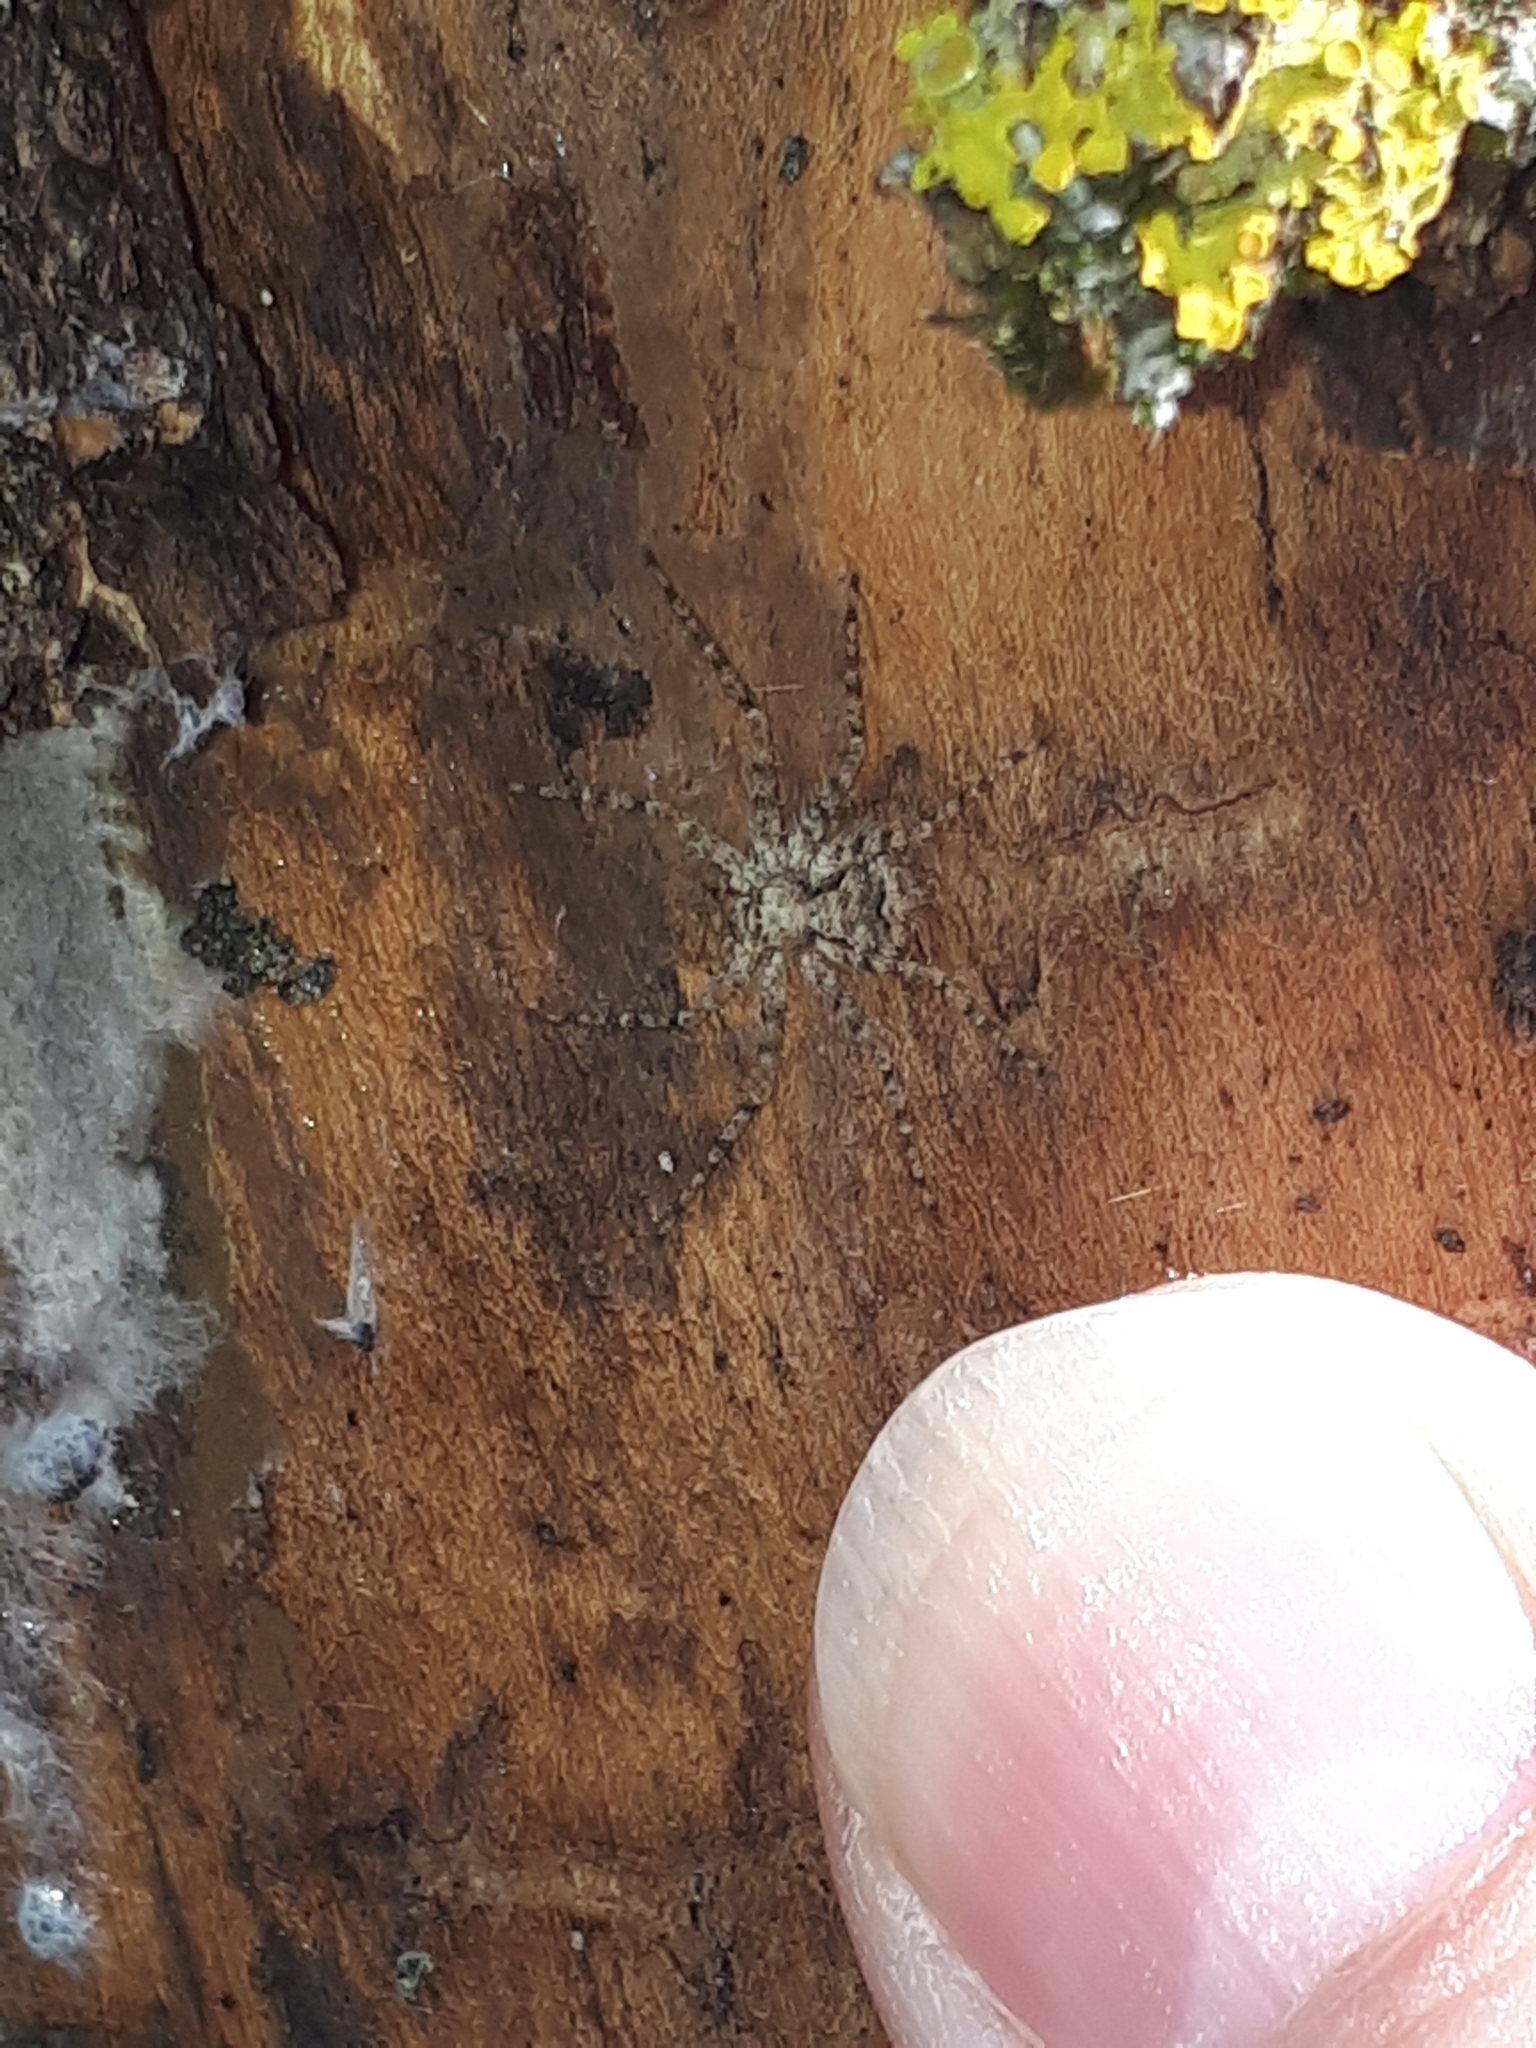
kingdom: Animalia
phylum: Arthropoda
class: Arachnida
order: Araneae
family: Philodromidae
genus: Philodromus
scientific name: Philodromus poecilus
